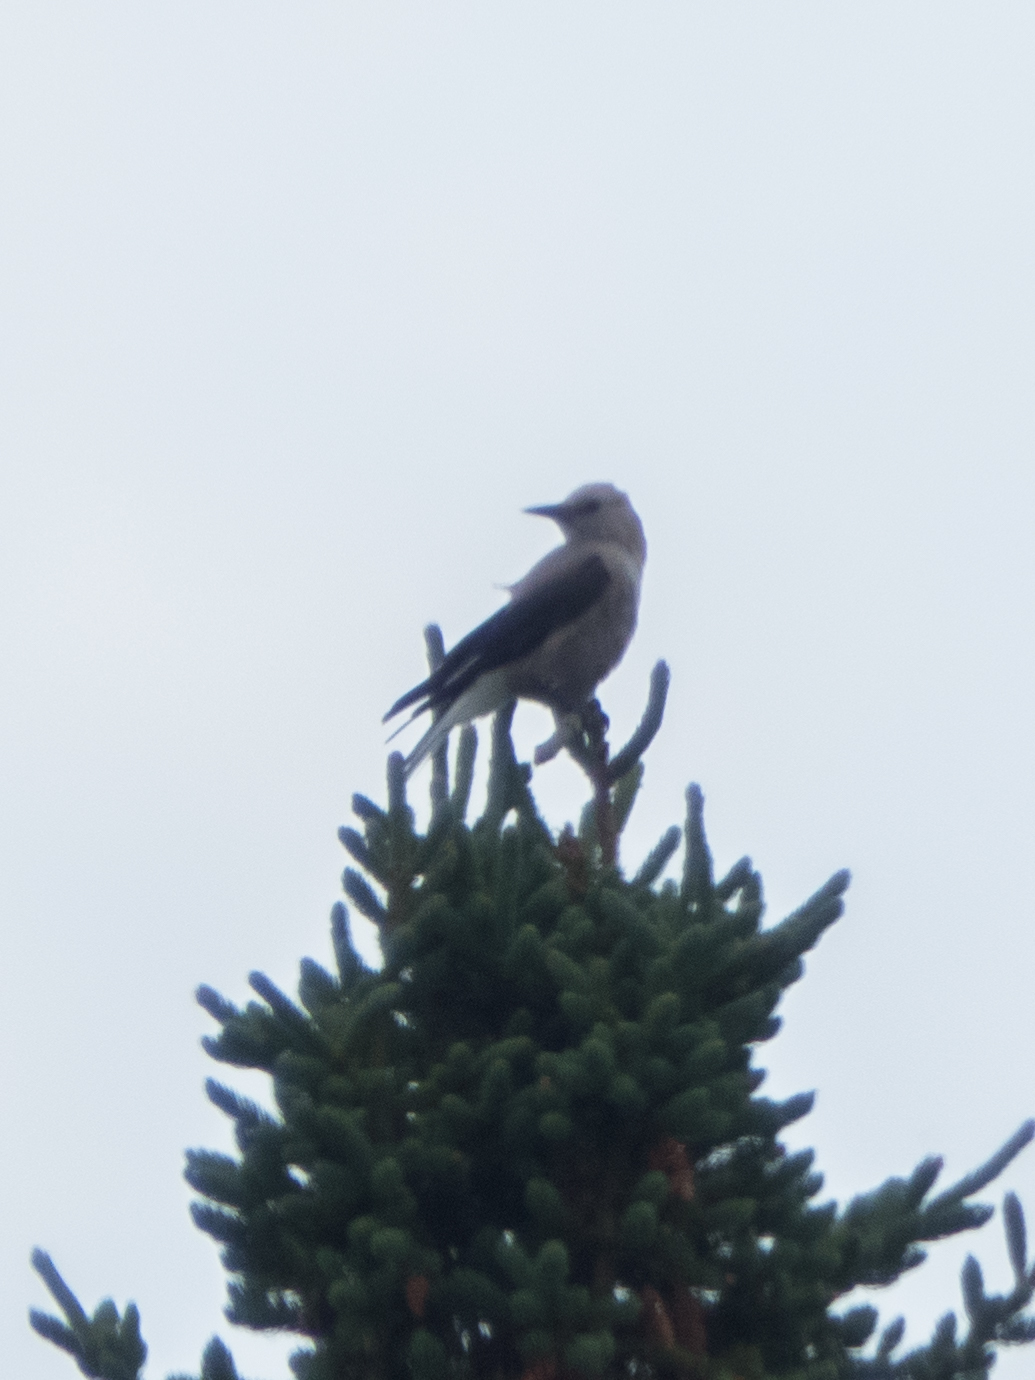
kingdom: Animalia
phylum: Chordata
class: Aves
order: Passeriformes
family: Corvidae
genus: Nucifraga
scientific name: Nucifraga columbiana
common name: Clark's nutcracker
